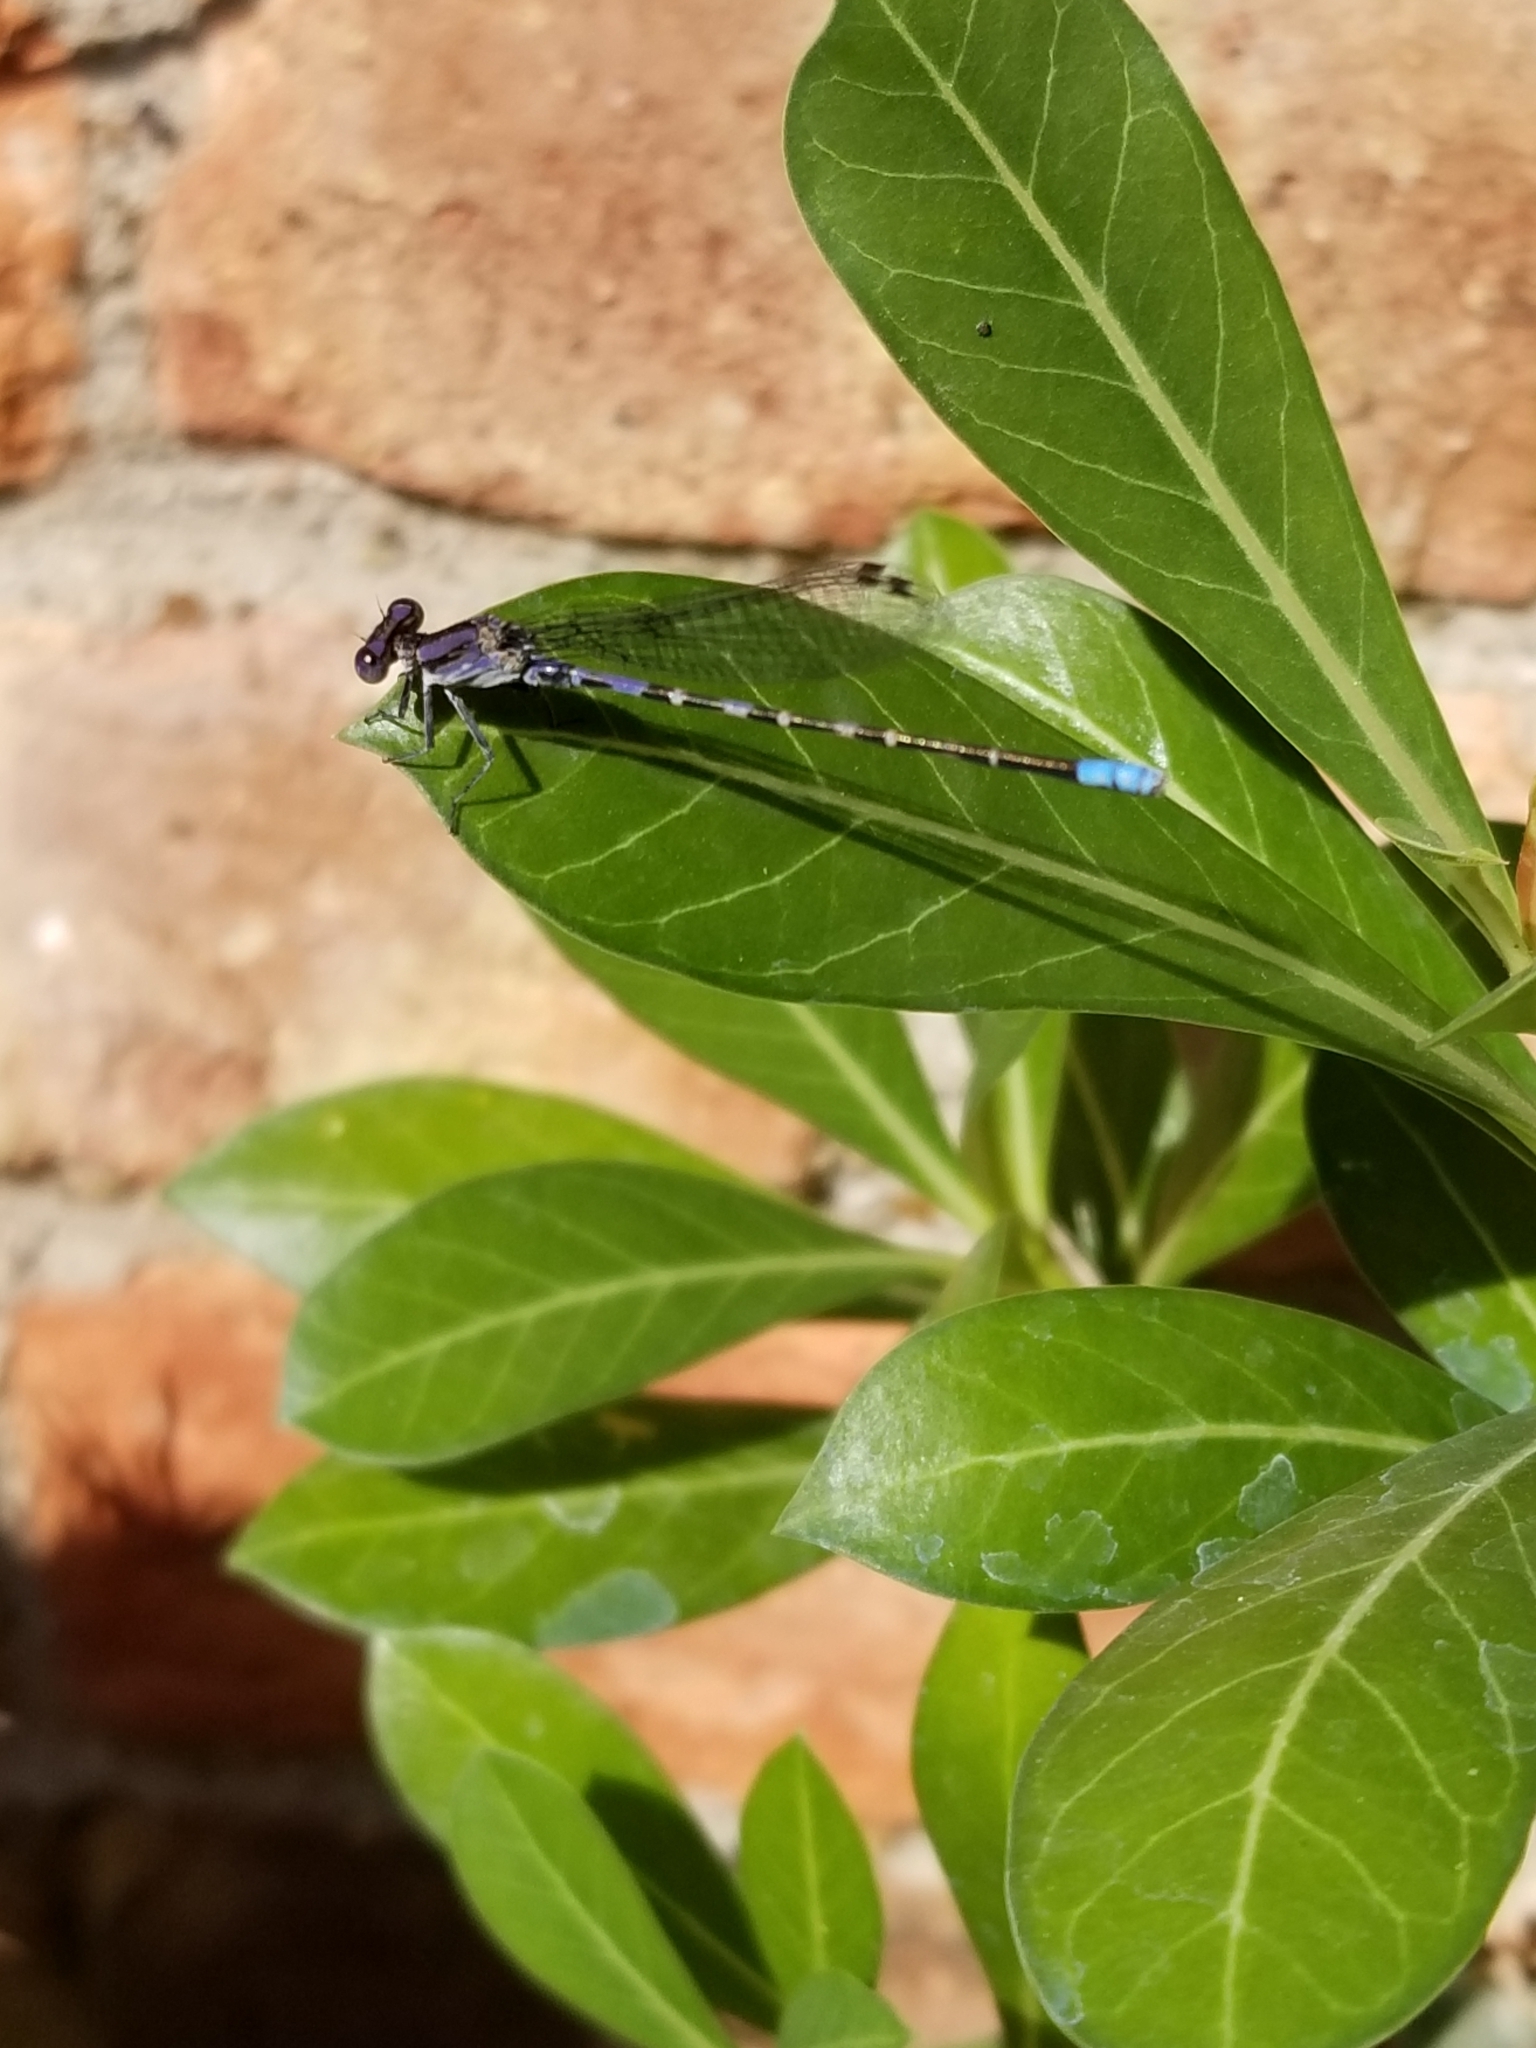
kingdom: Animalia
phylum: Arthropoda
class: Insecta
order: Odonata
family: Coenagrionidae
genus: Argia
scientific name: Argia immunda
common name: Kiowa dancer
